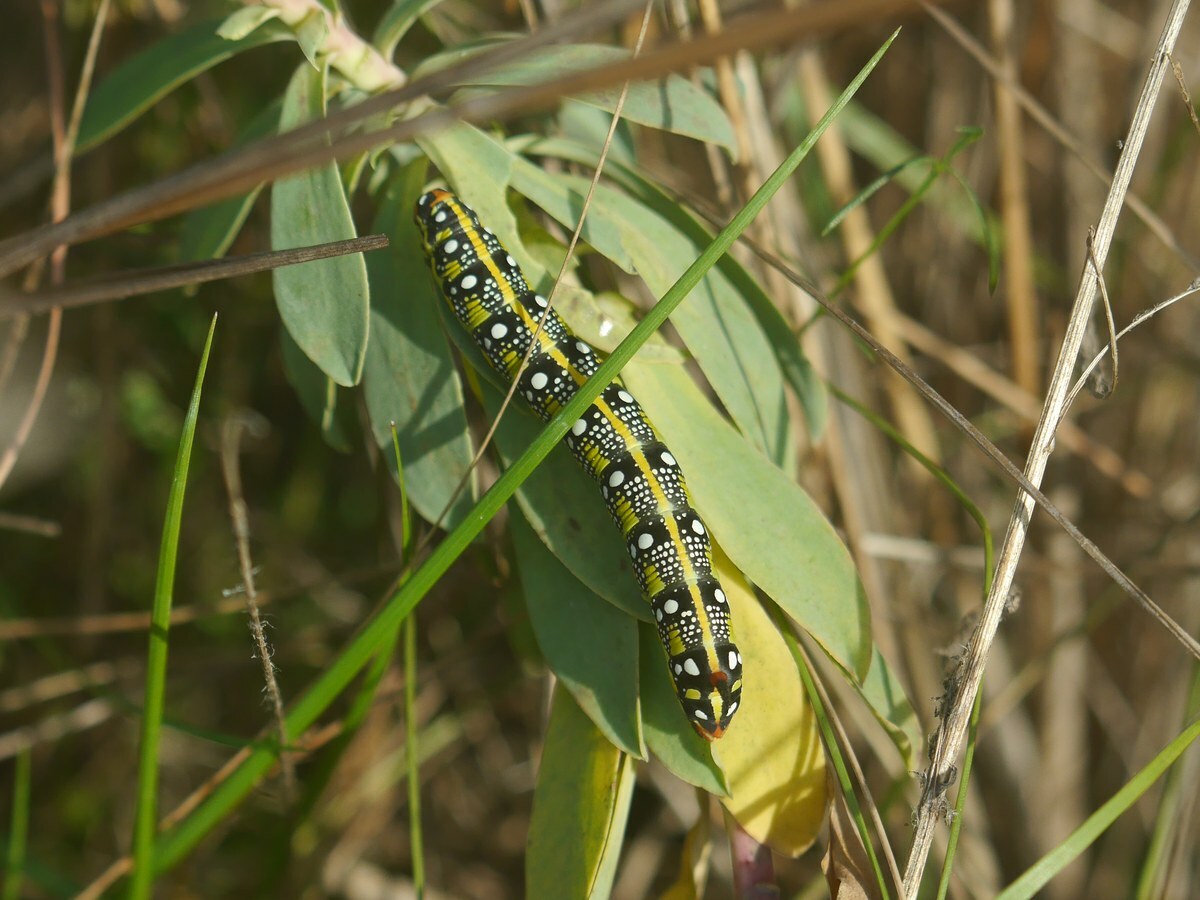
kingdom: Animalia
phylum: Arthropoda
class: Insecta
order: Lepidoptera
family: Sphingidae
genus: Hyles
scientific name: Hyles euphorbiae
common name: Spurge hawk-moth
